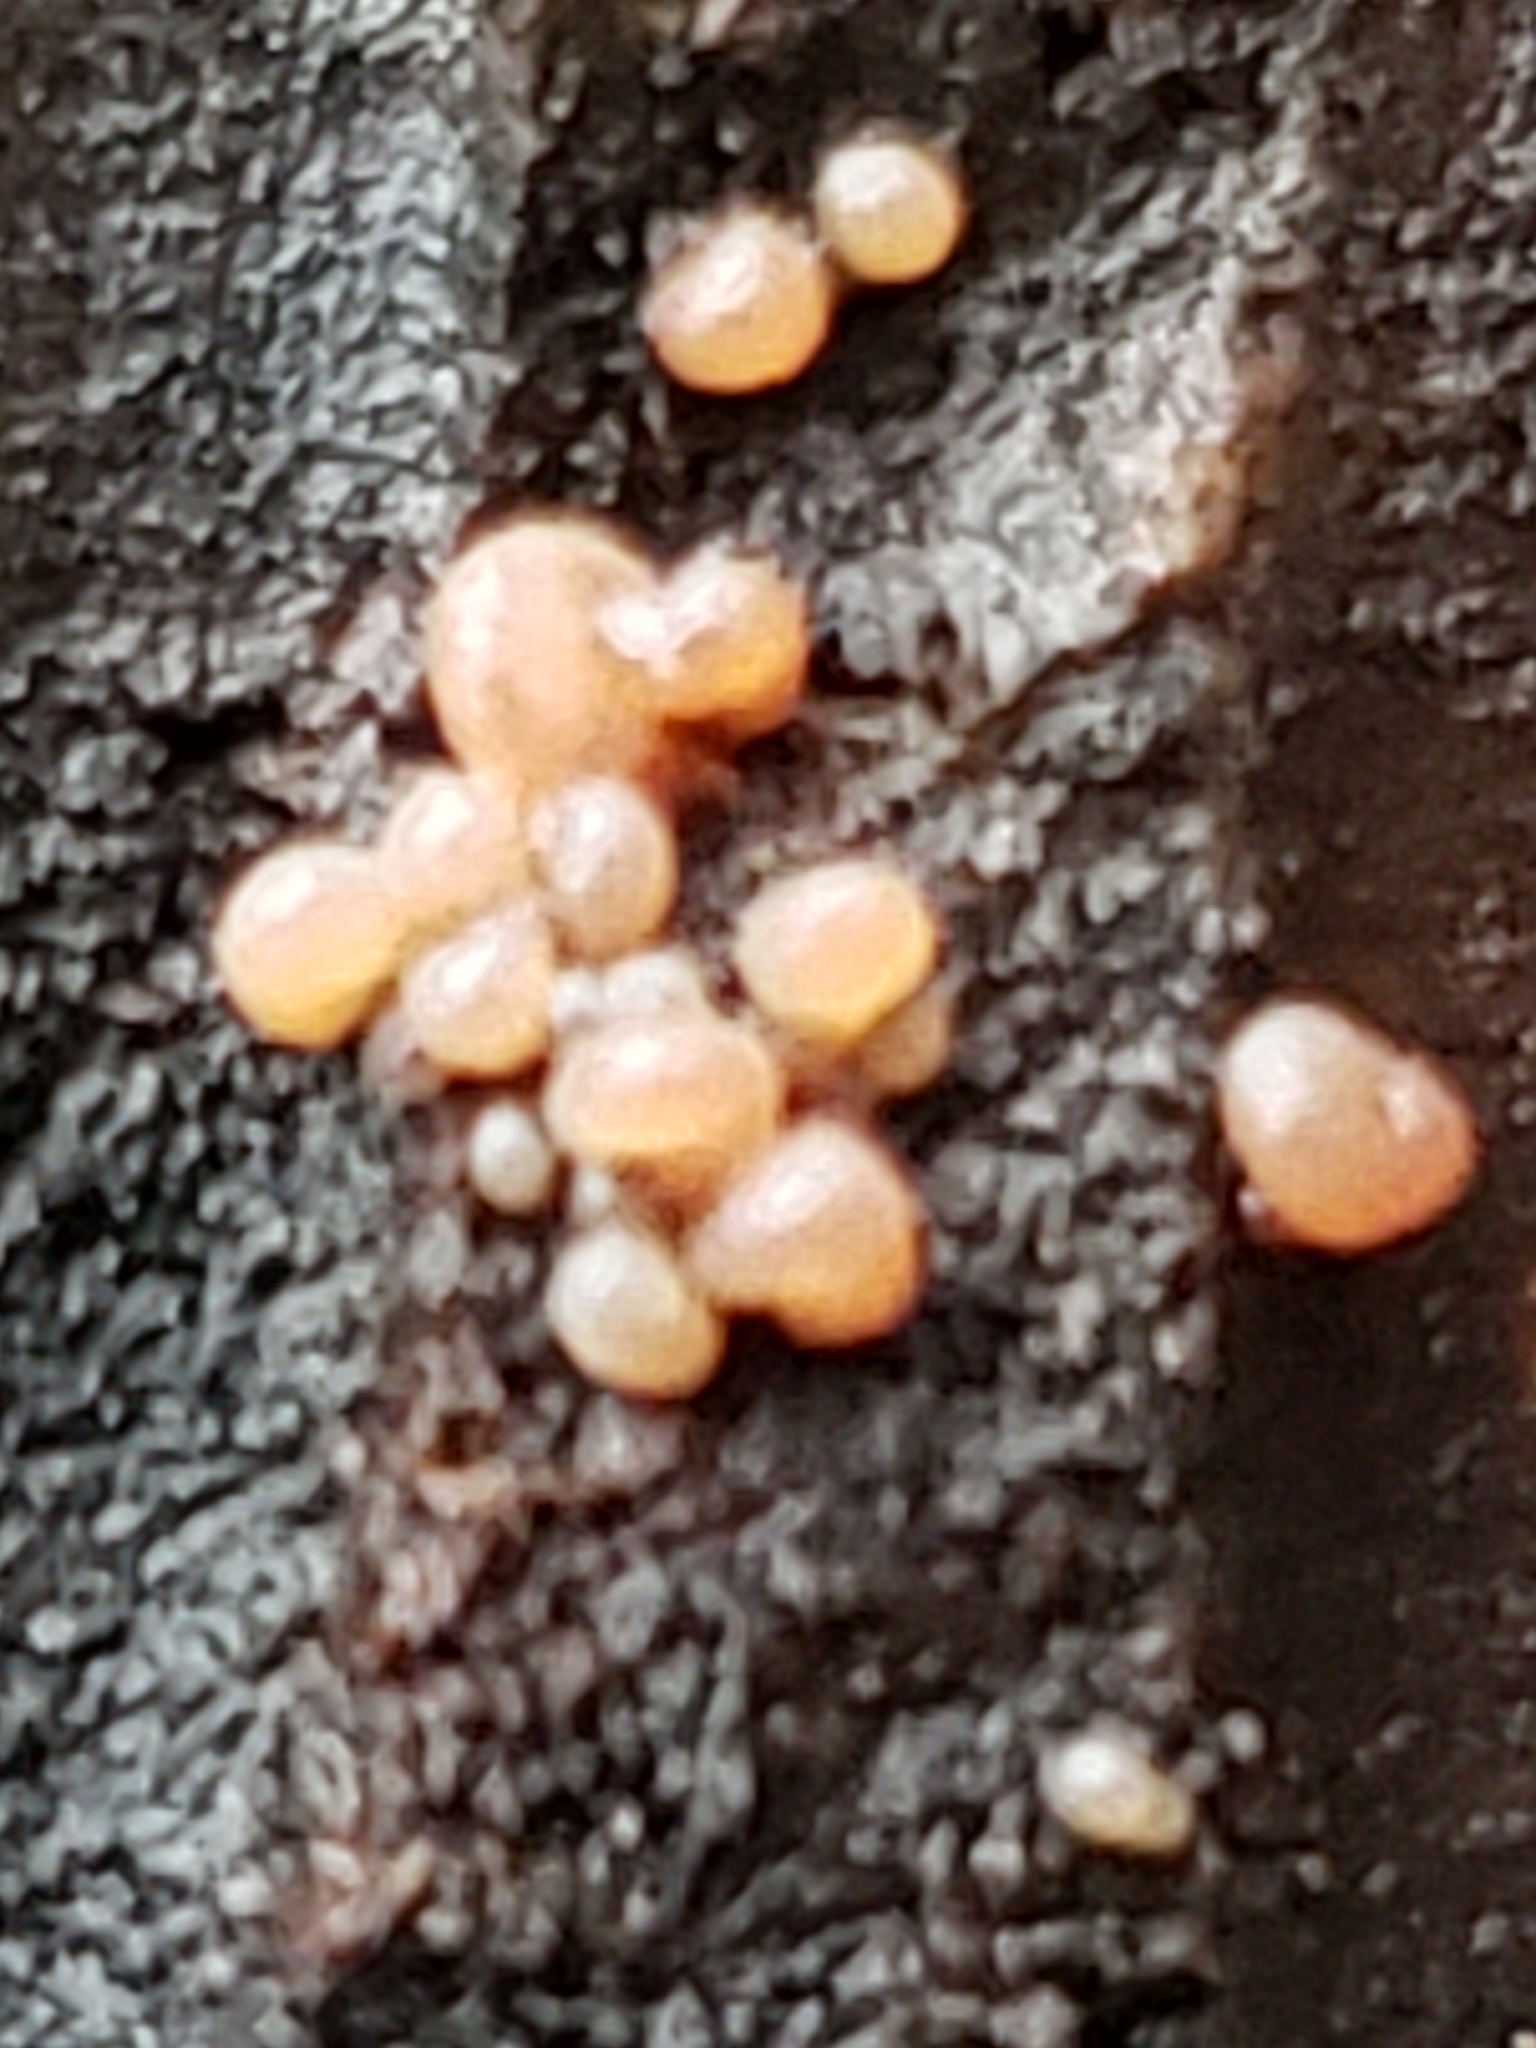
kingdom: Fungi
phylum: Ascomycota
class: Leotiomycetes
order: Helotiales
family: Gelatinodiscaceae
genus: Ascocoryne
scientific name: Ascocoryne sarcoides
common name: Purple jellydisc
